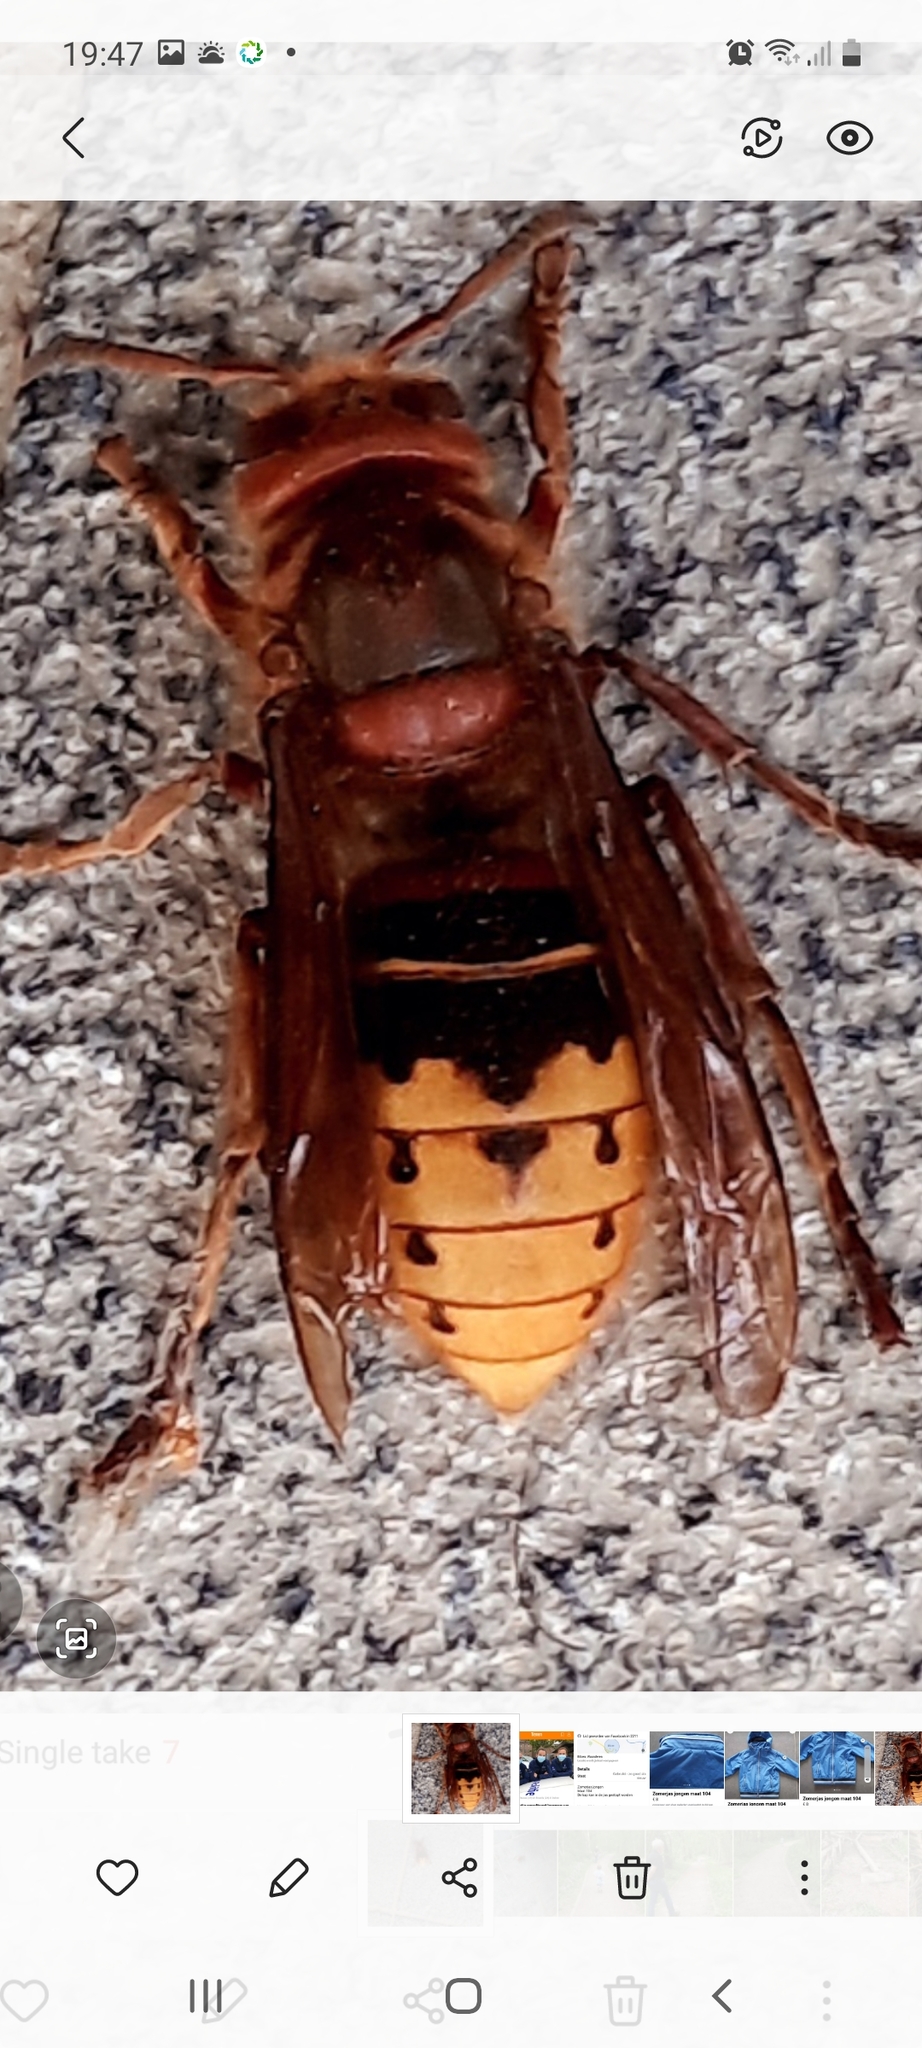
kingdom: Animalia
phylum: Arthropoda
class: Insecta
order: Hymenoptera
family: Vespidae
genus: Vespa
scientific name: Vespa crabro
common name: Hornet
